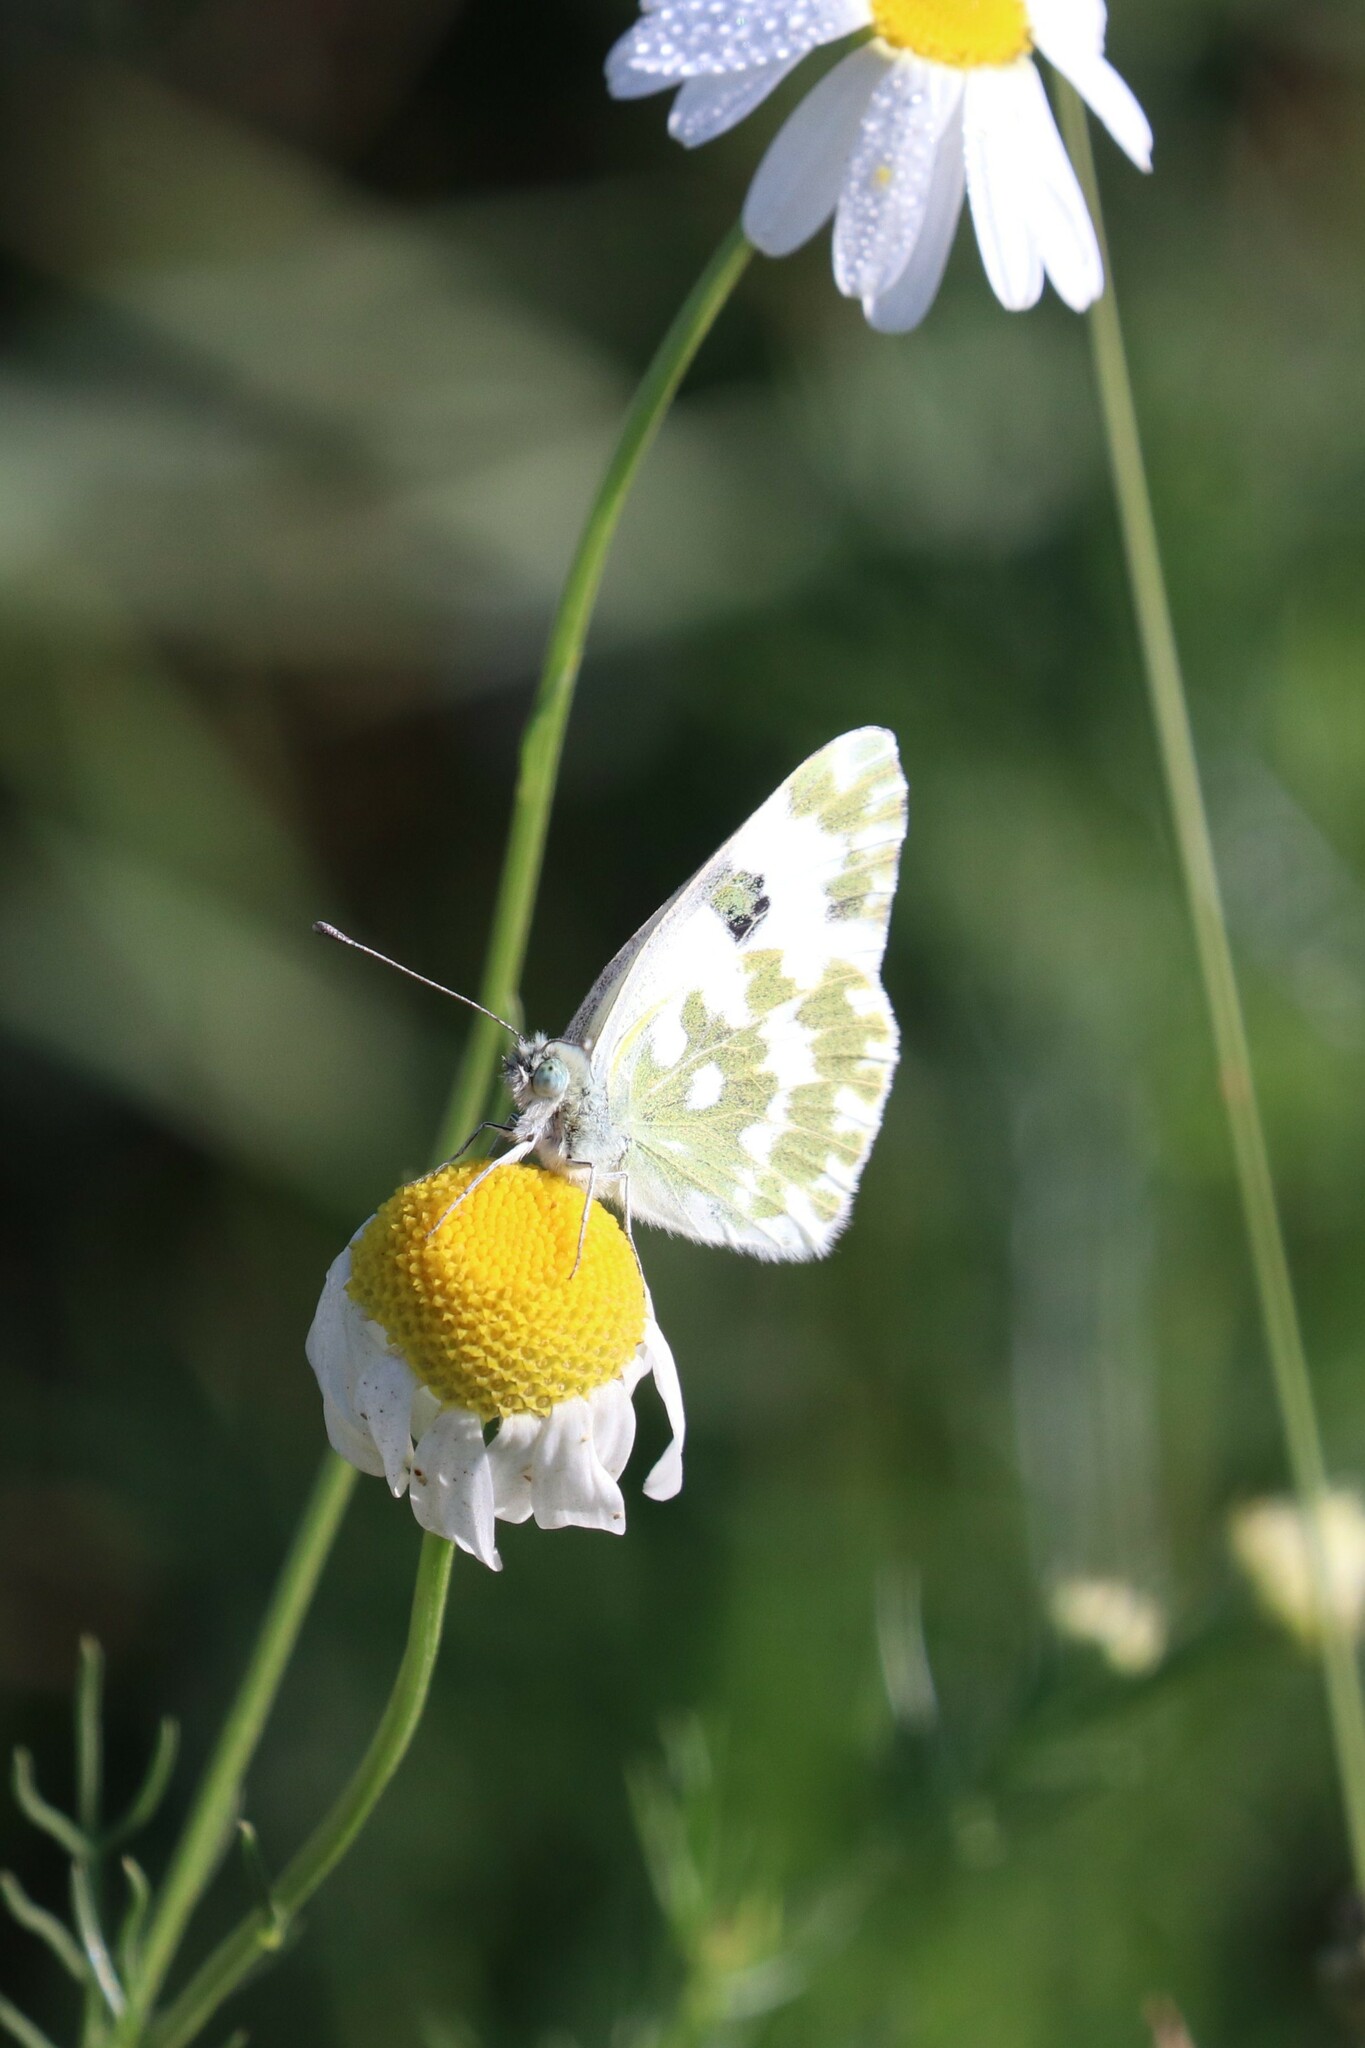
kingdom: Plantae
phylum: Tracheophyta
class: Magnoliopsida
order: Asterales
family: Asteraceae
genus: Tripleurospermum
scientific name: Tripleurospermum inodorum
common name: Scentless mayweed
